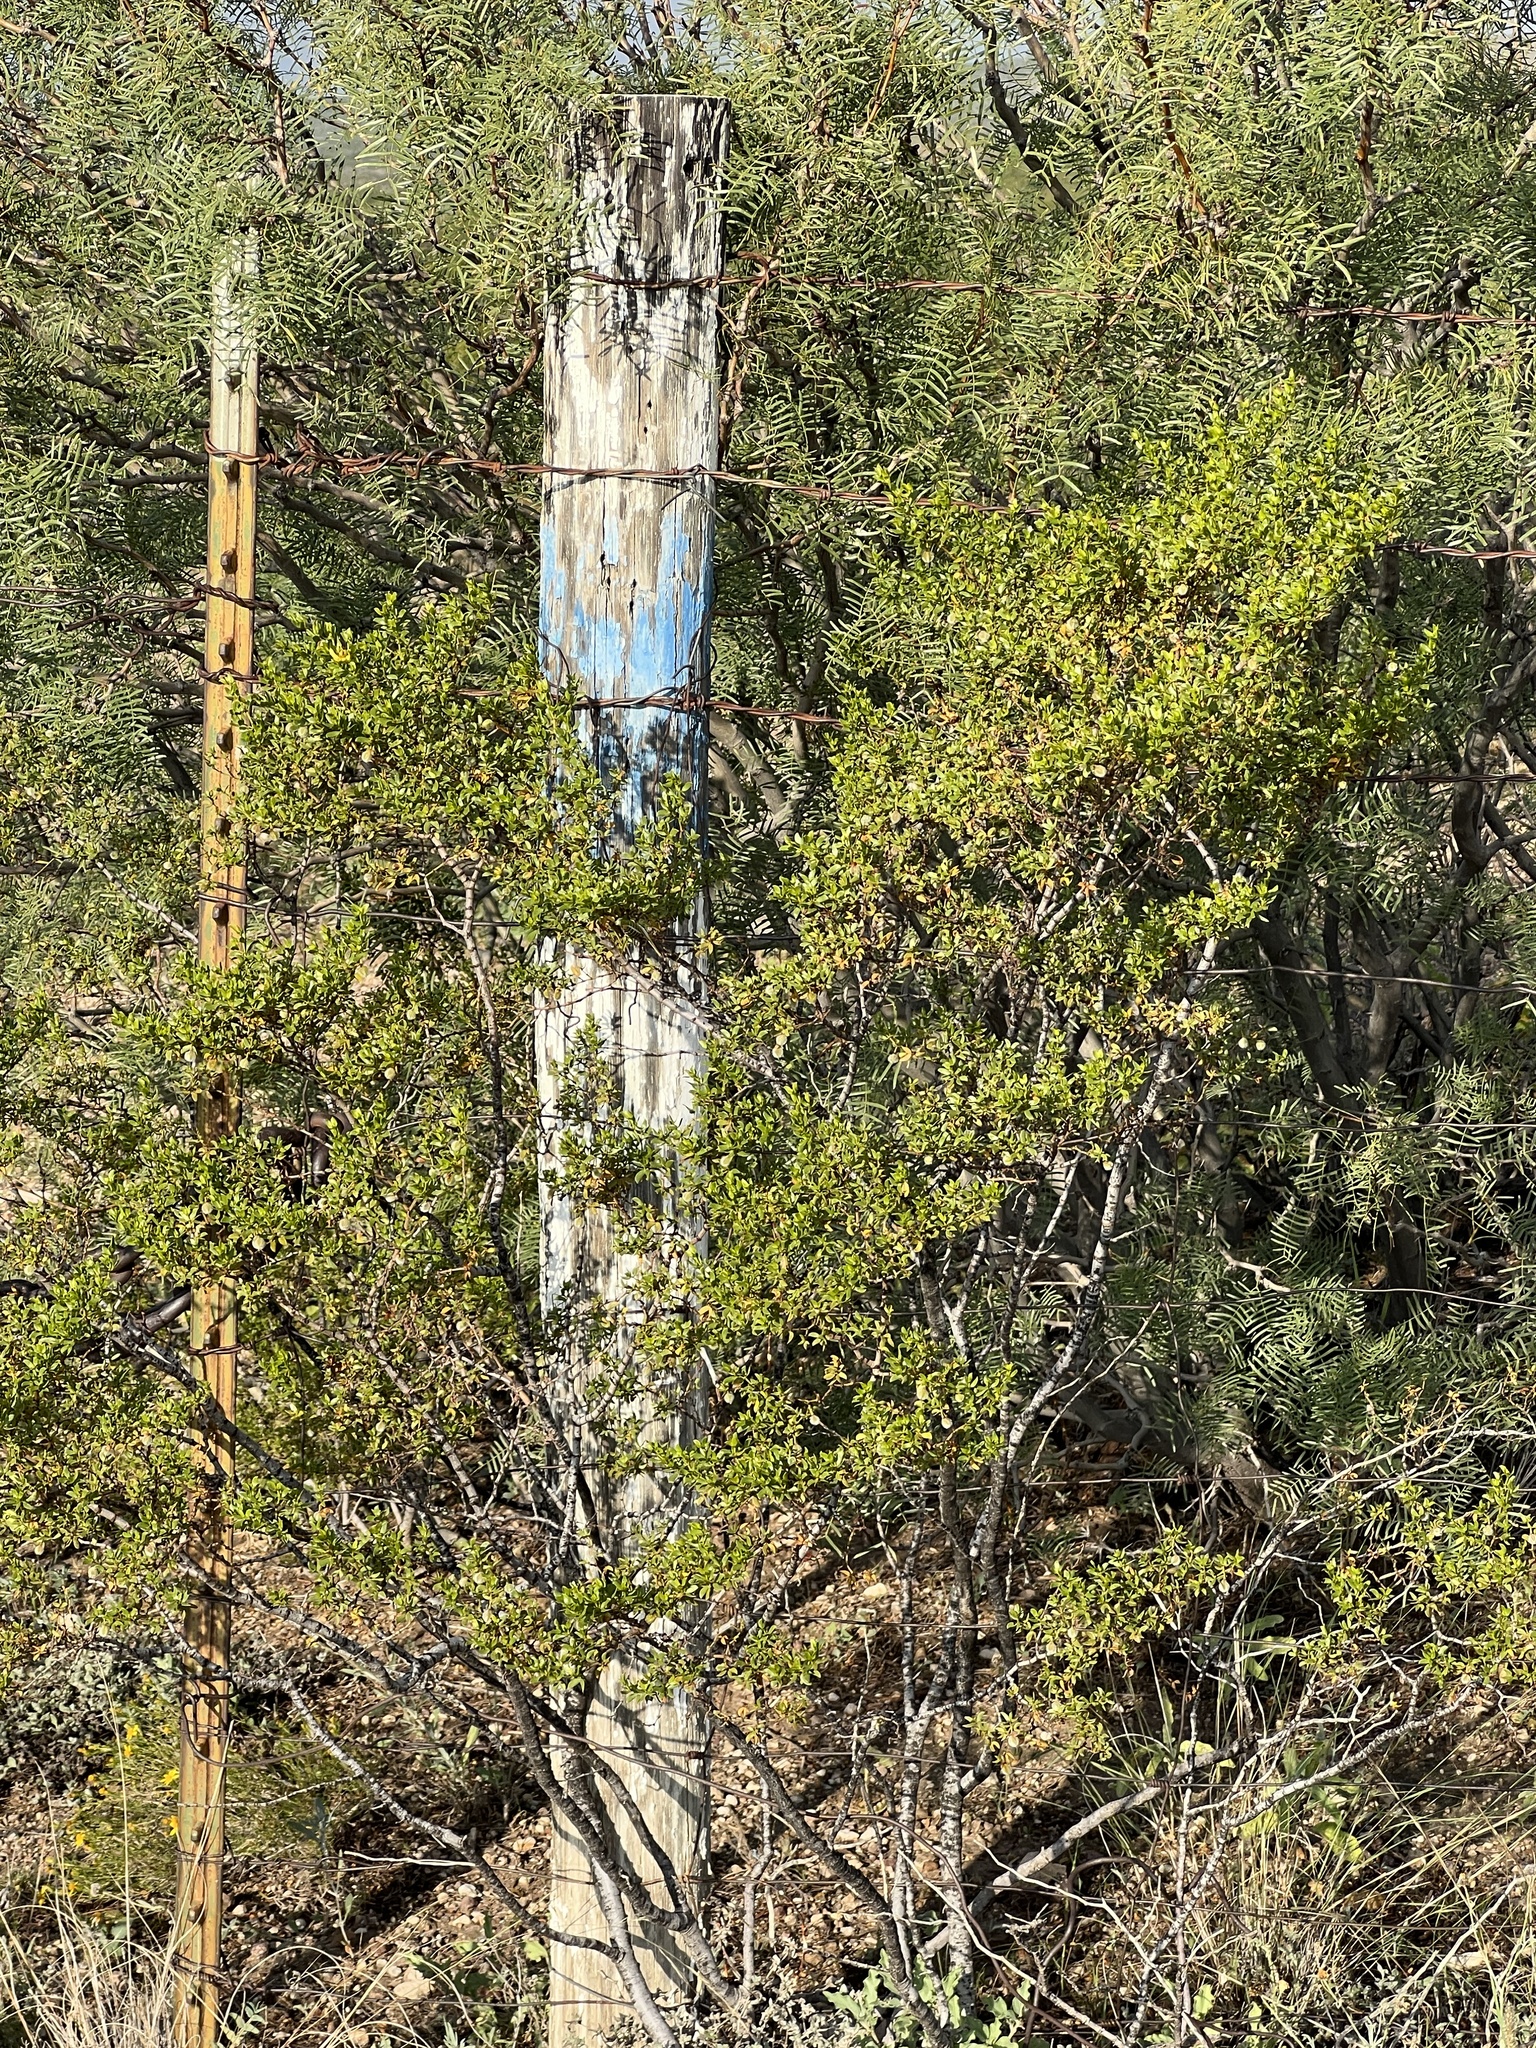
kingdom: Plantae
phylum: Tracheophyta
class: Magnoliopsida
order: Zygophyllales
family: Zygophyllaceae
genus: Larrea
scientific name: Larrea tridentata
